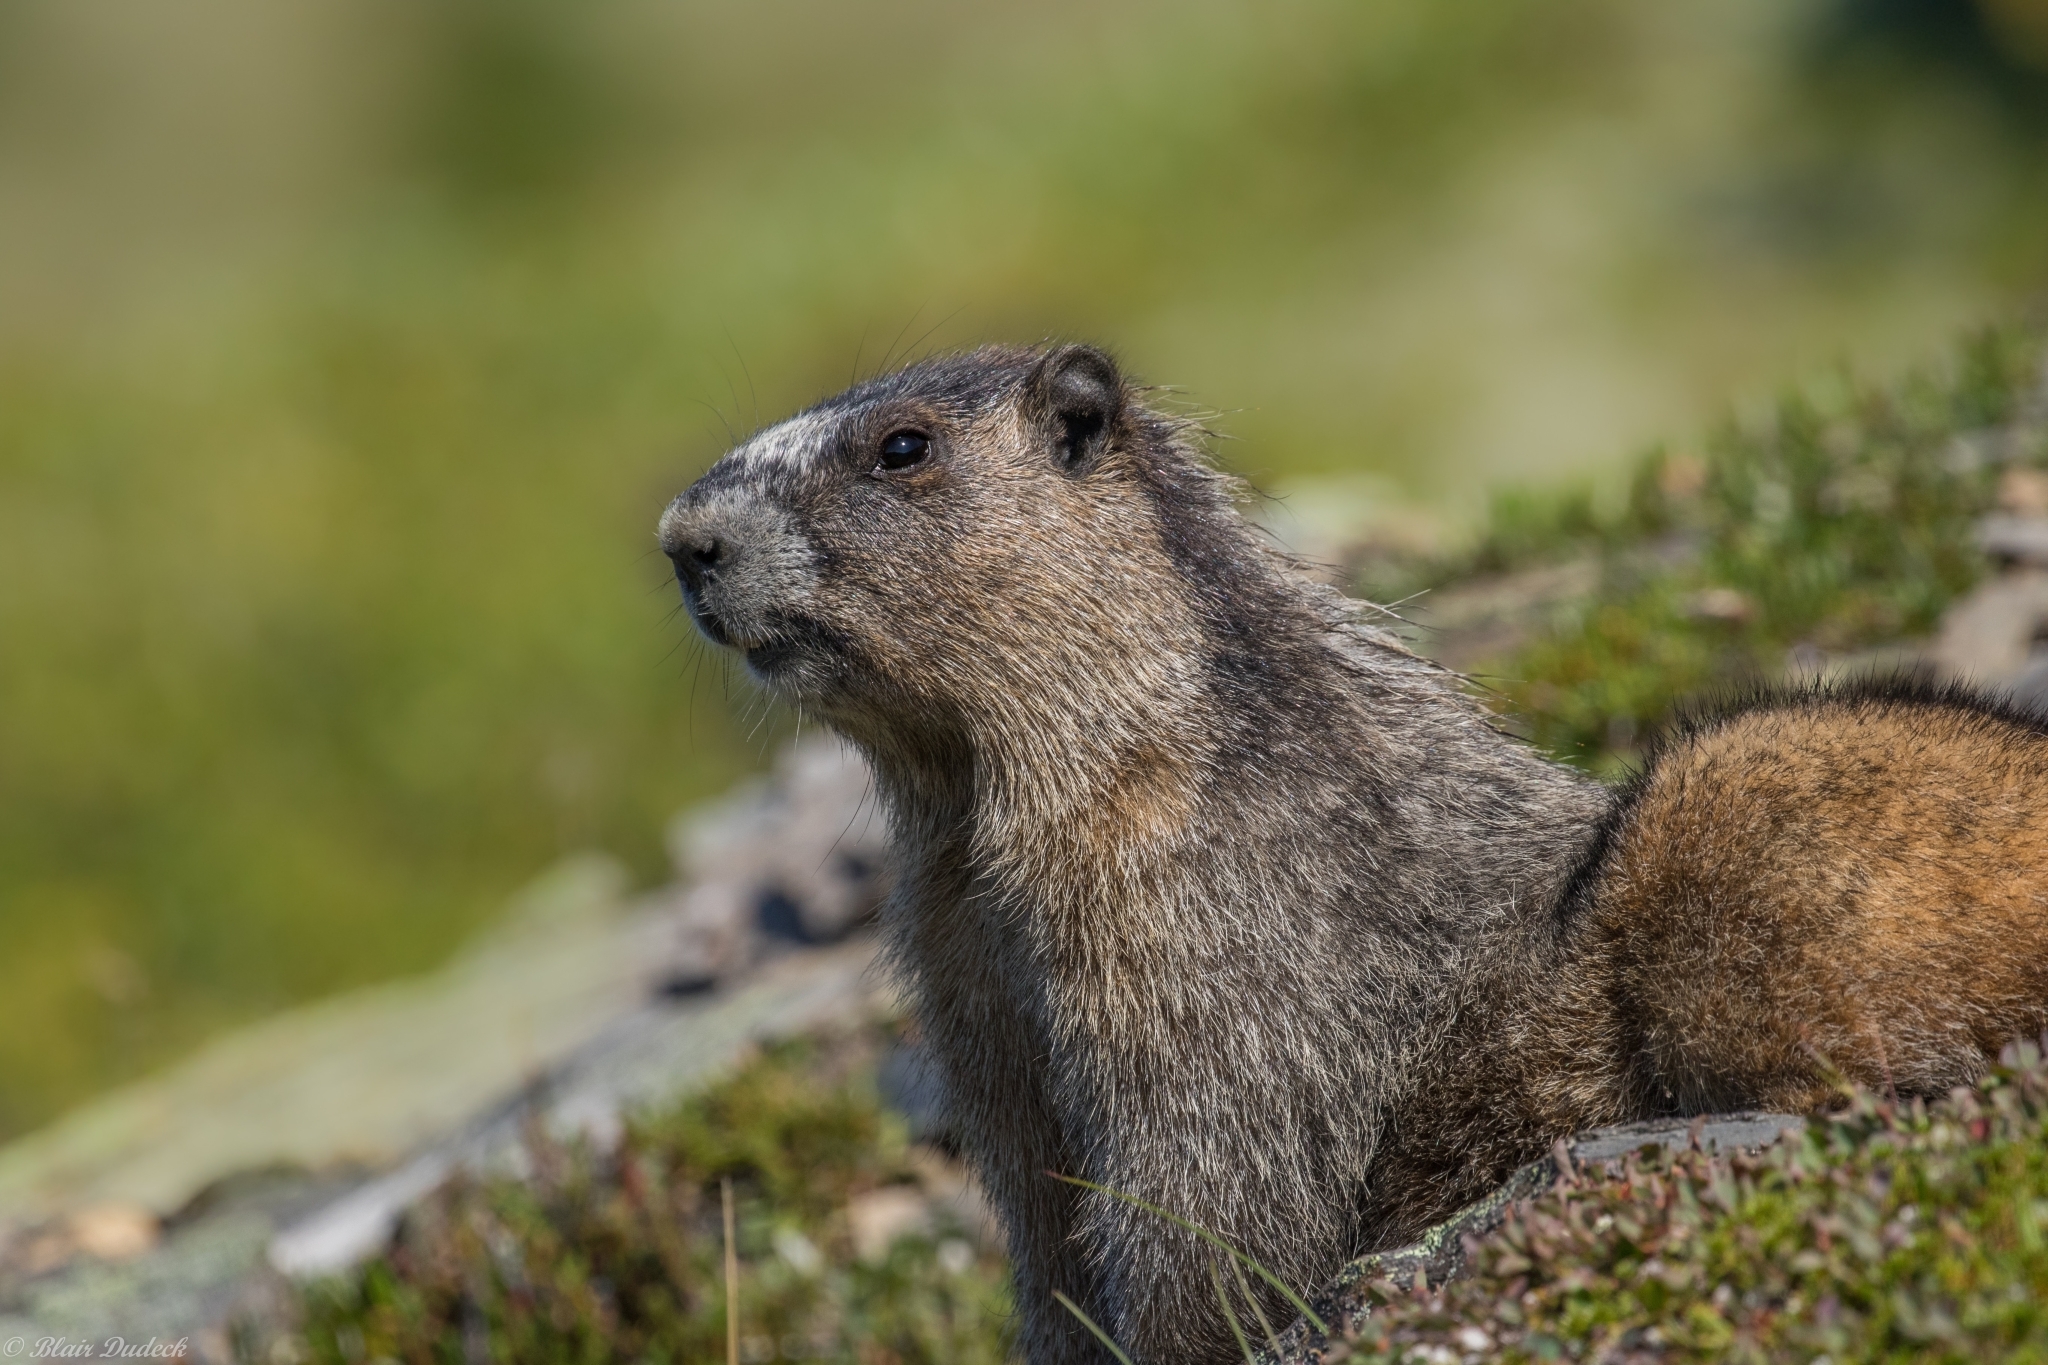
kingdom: Animalia
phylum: Chordata
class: Mammalia
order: Rodentia
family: Sciuridae
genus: Marmota
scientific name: Marmota caligata
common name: Hoary marmot
